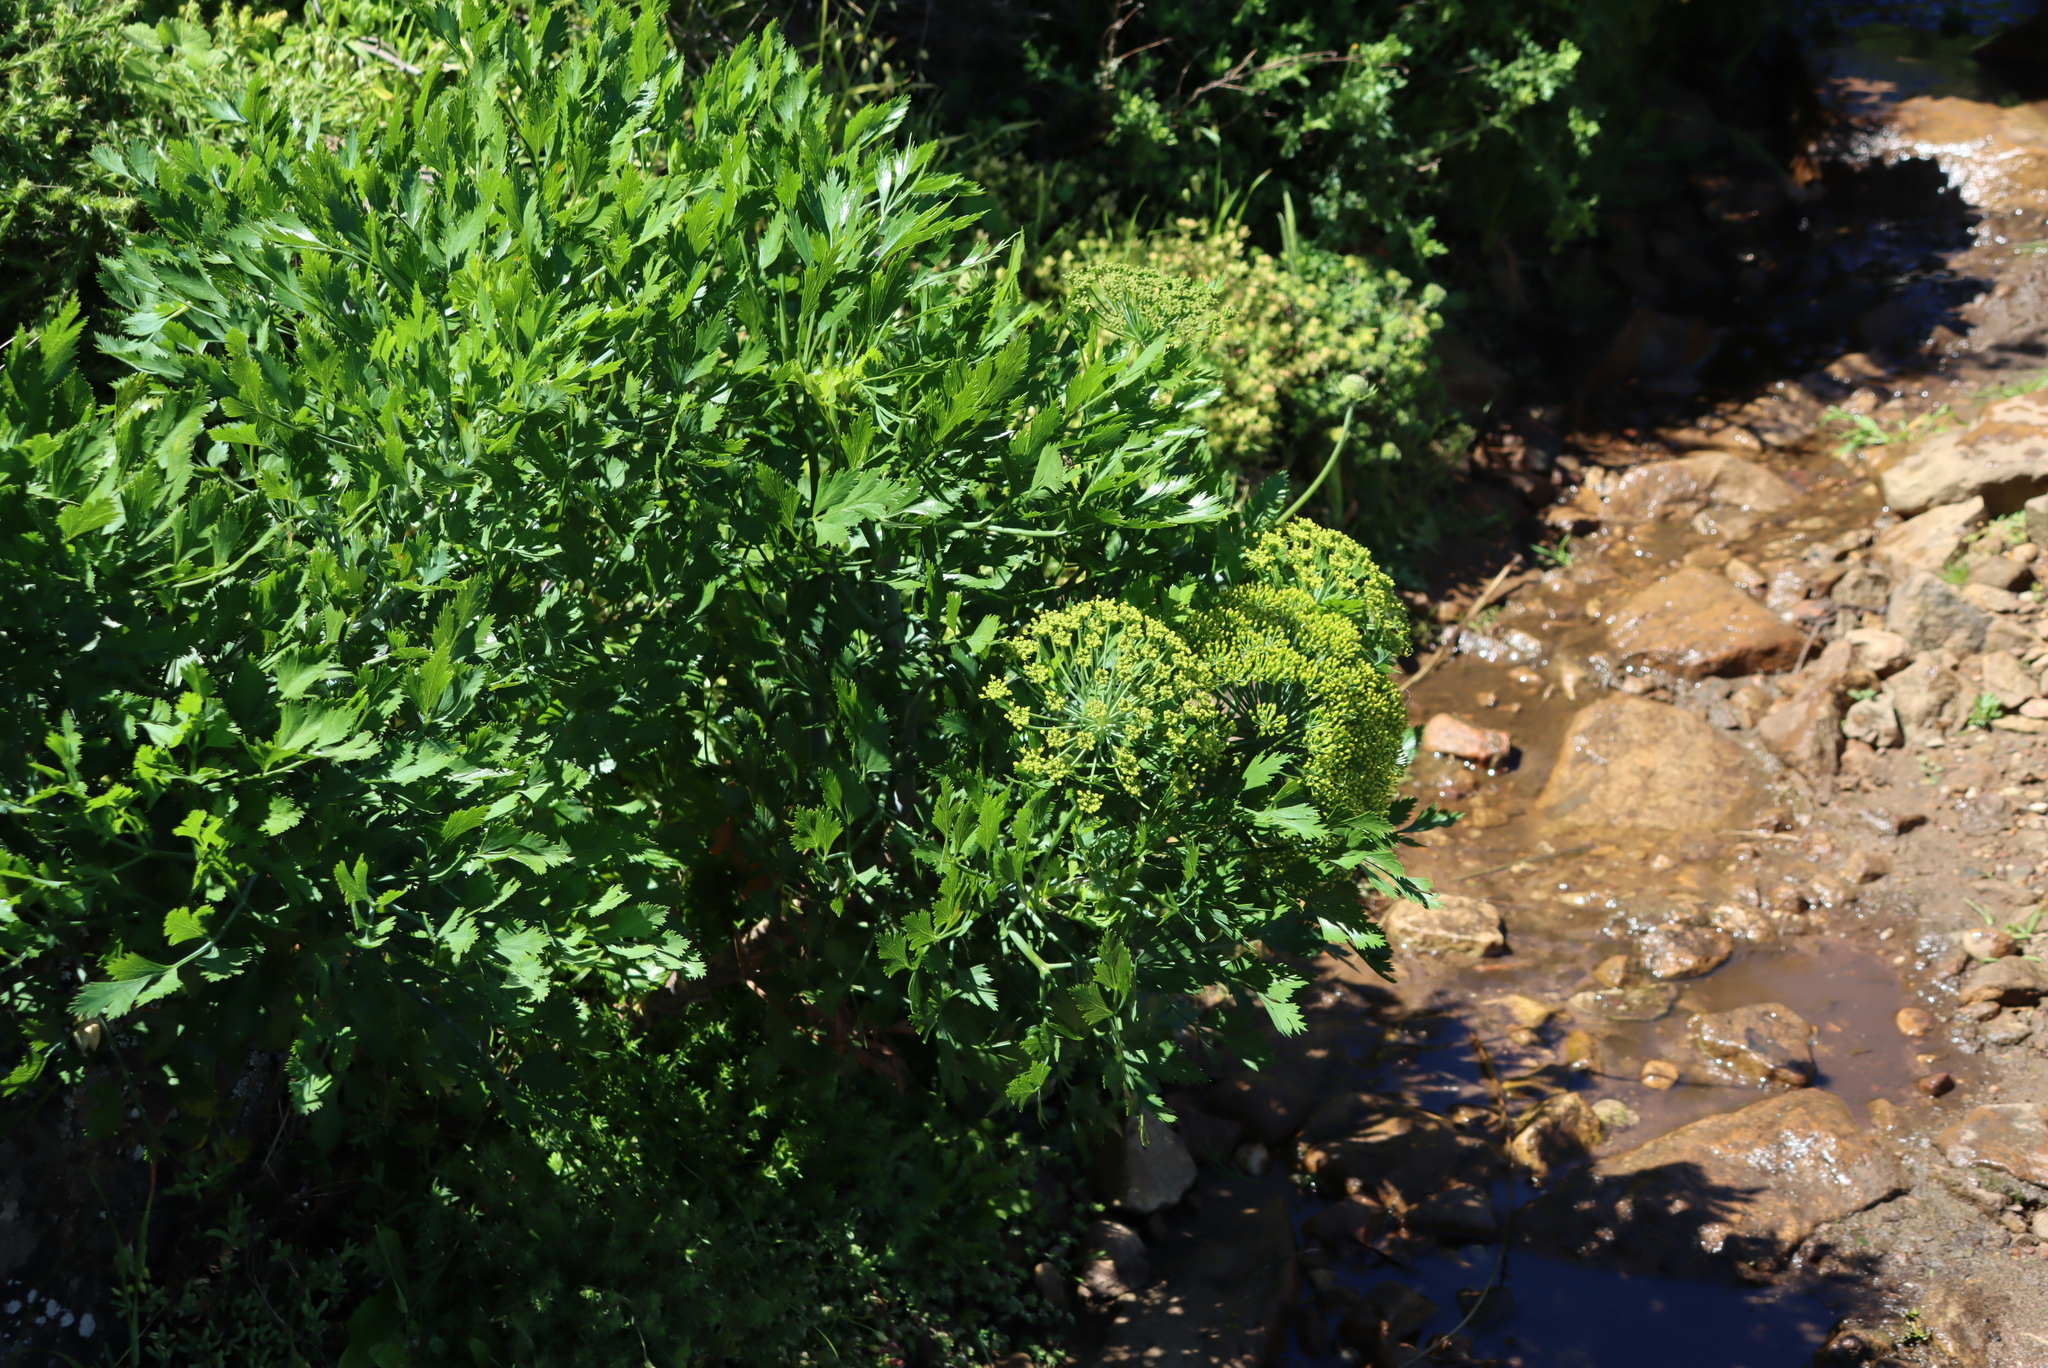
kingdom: Plantae
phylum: Tracheophyta
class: Magnoliopsida
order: Apiales
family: Apiaceae
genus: Notobubon
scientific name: Notobubon galbanum
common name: Blisterbush
